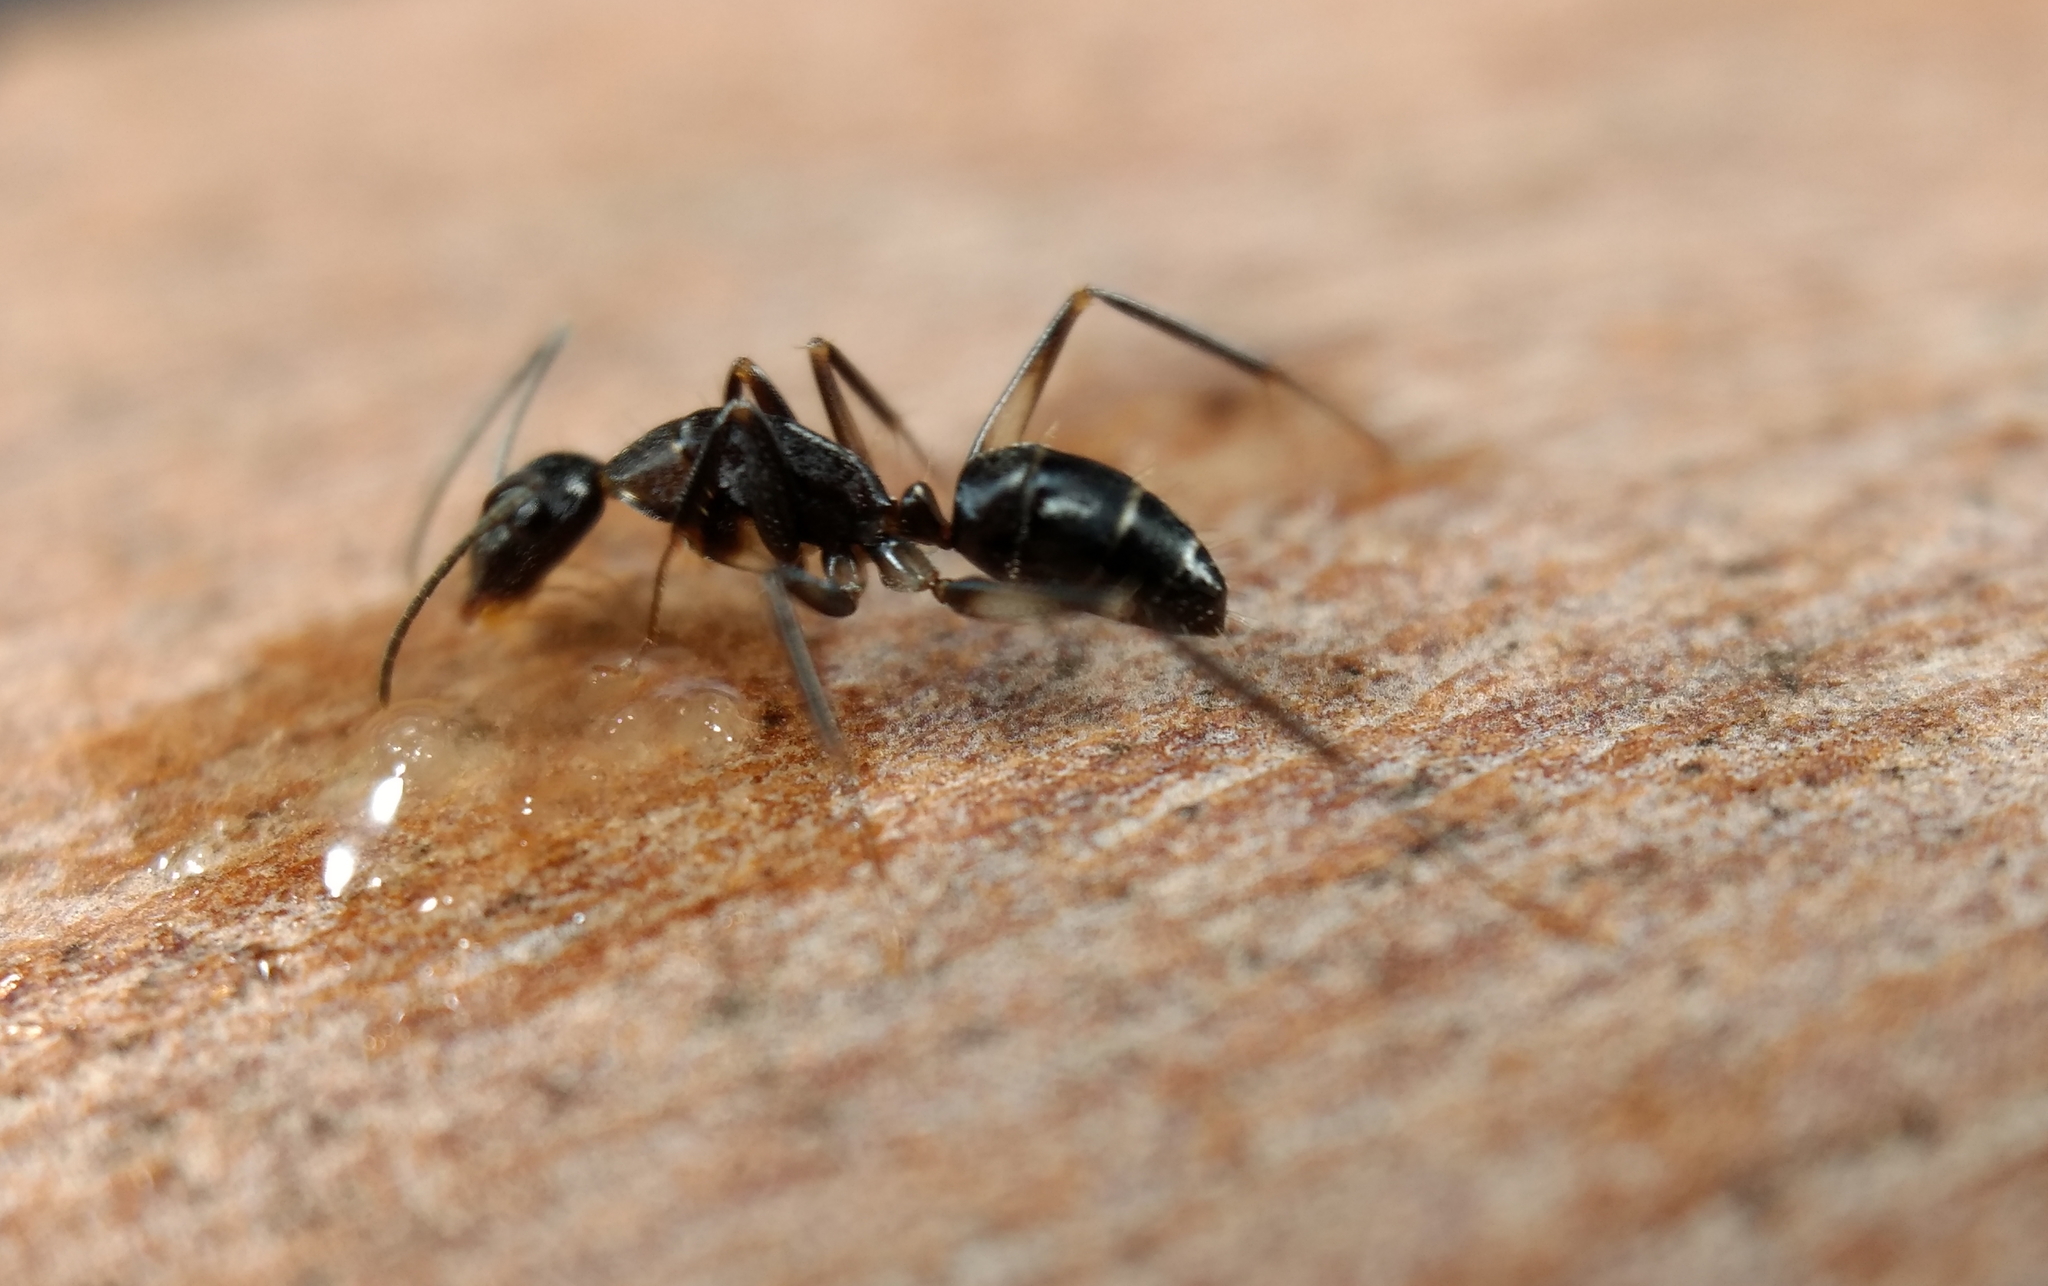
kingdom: Animalia
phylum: Arthropoda
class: Insecta
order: Hymenoptera
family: Formicidae
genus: Camponotus
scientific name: Camponotus lividicoxis
